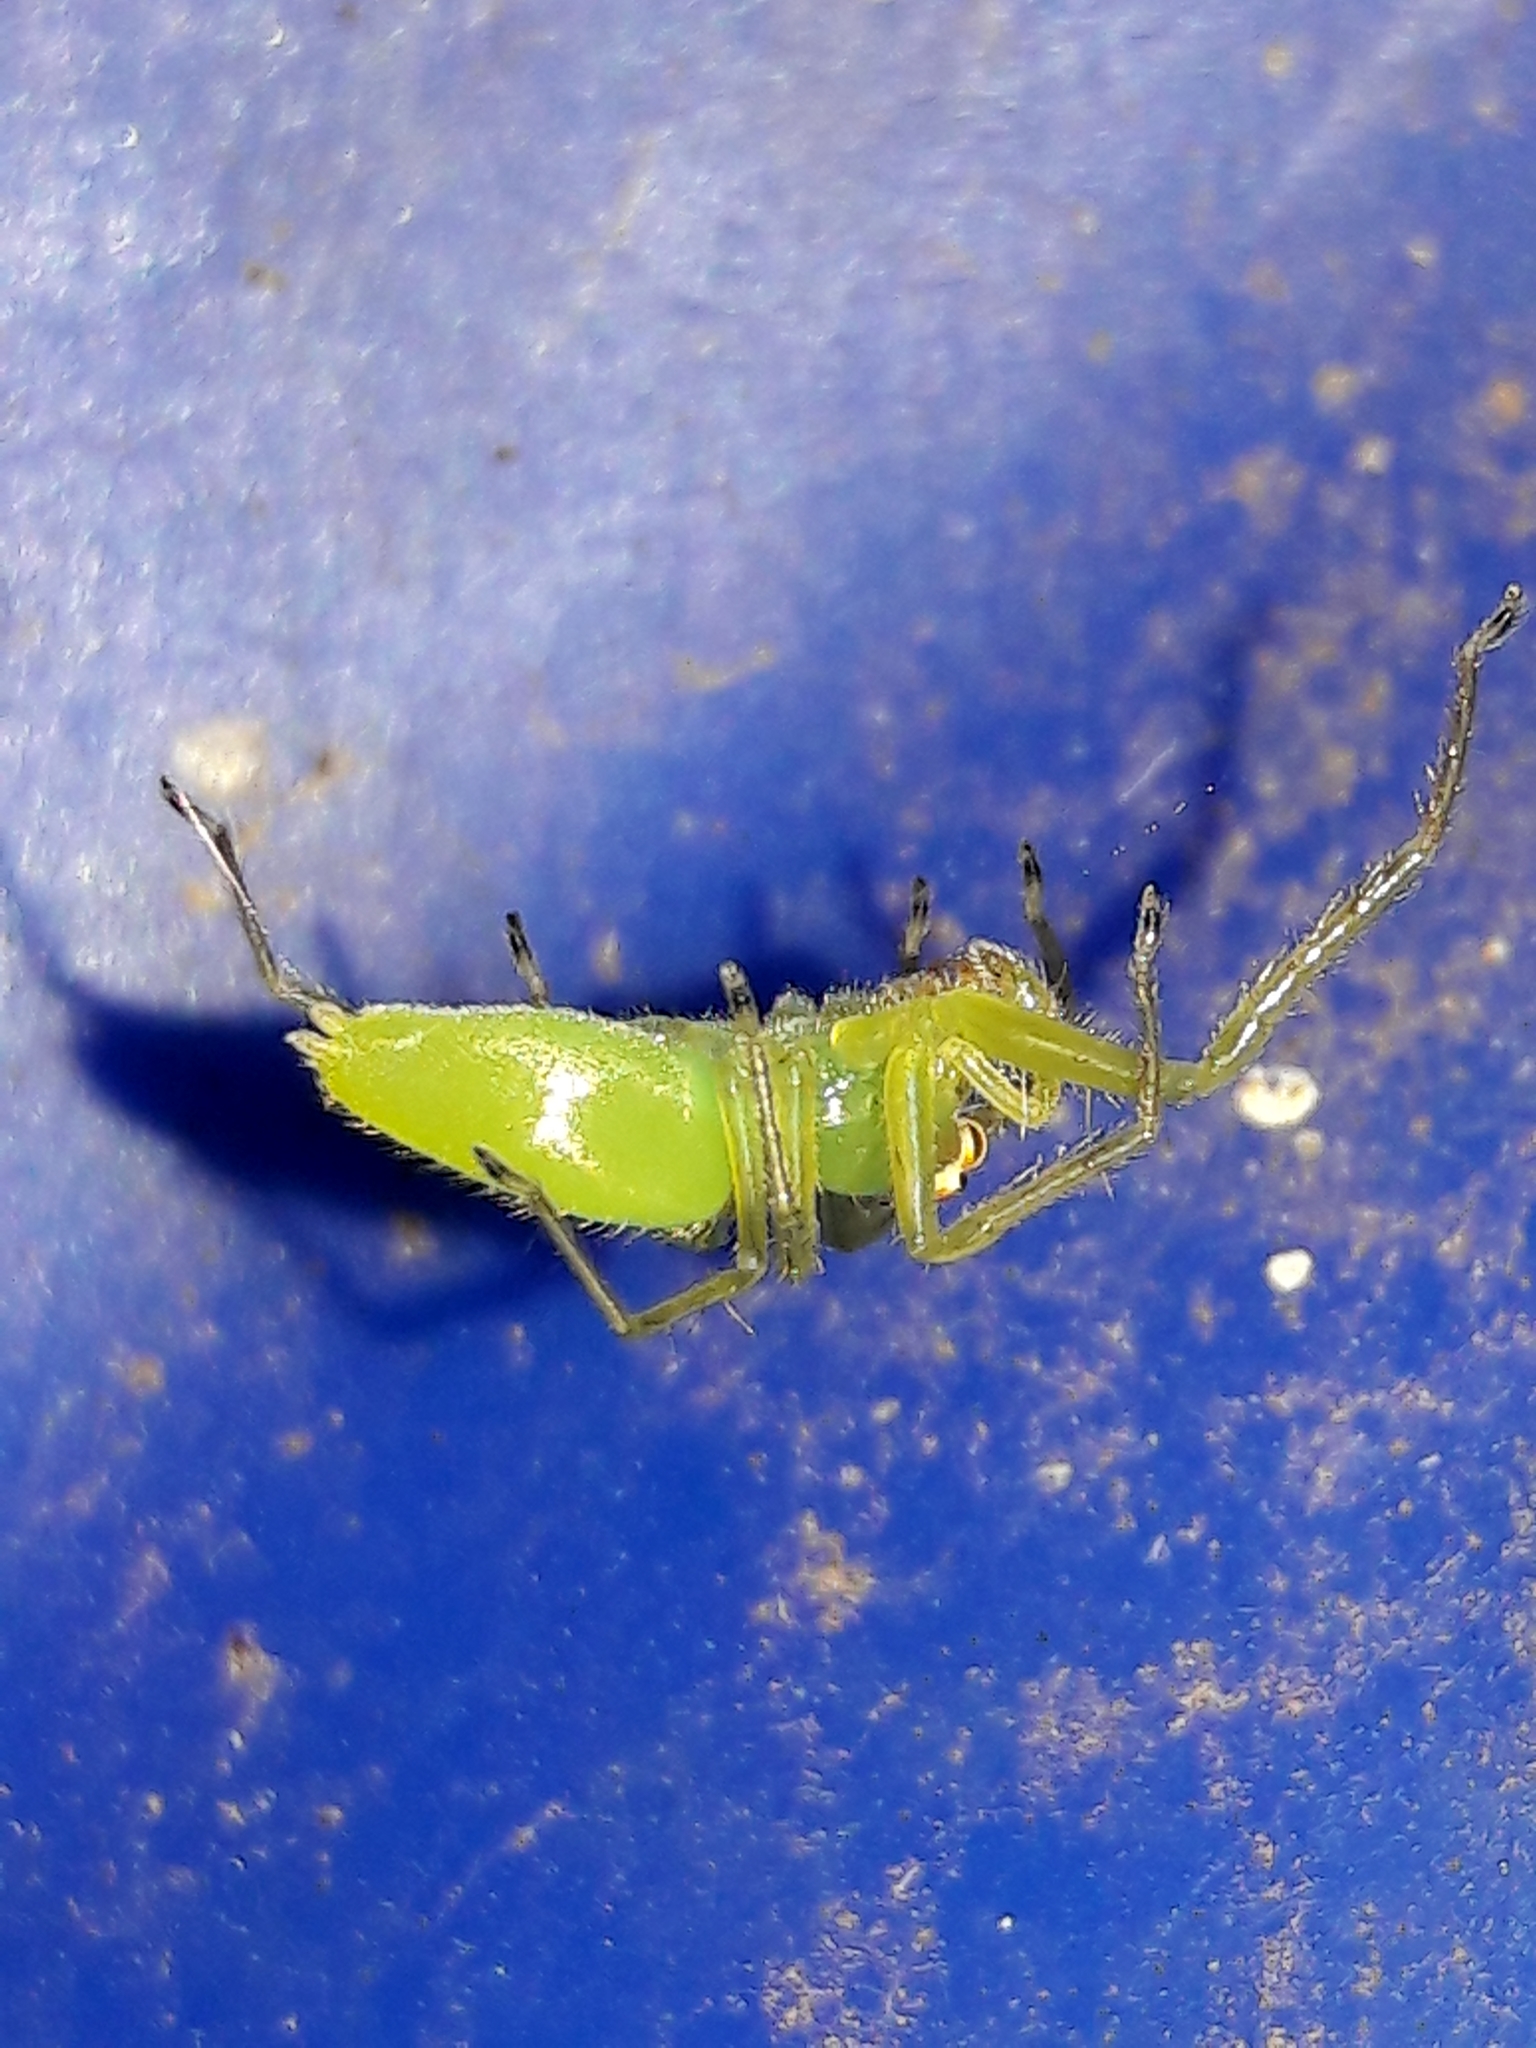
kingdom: Animalia
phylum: Arthropoda
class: Arachnida
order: Araneae
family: Salticidae
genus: Lyssomanes
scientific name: Lyssomanes
